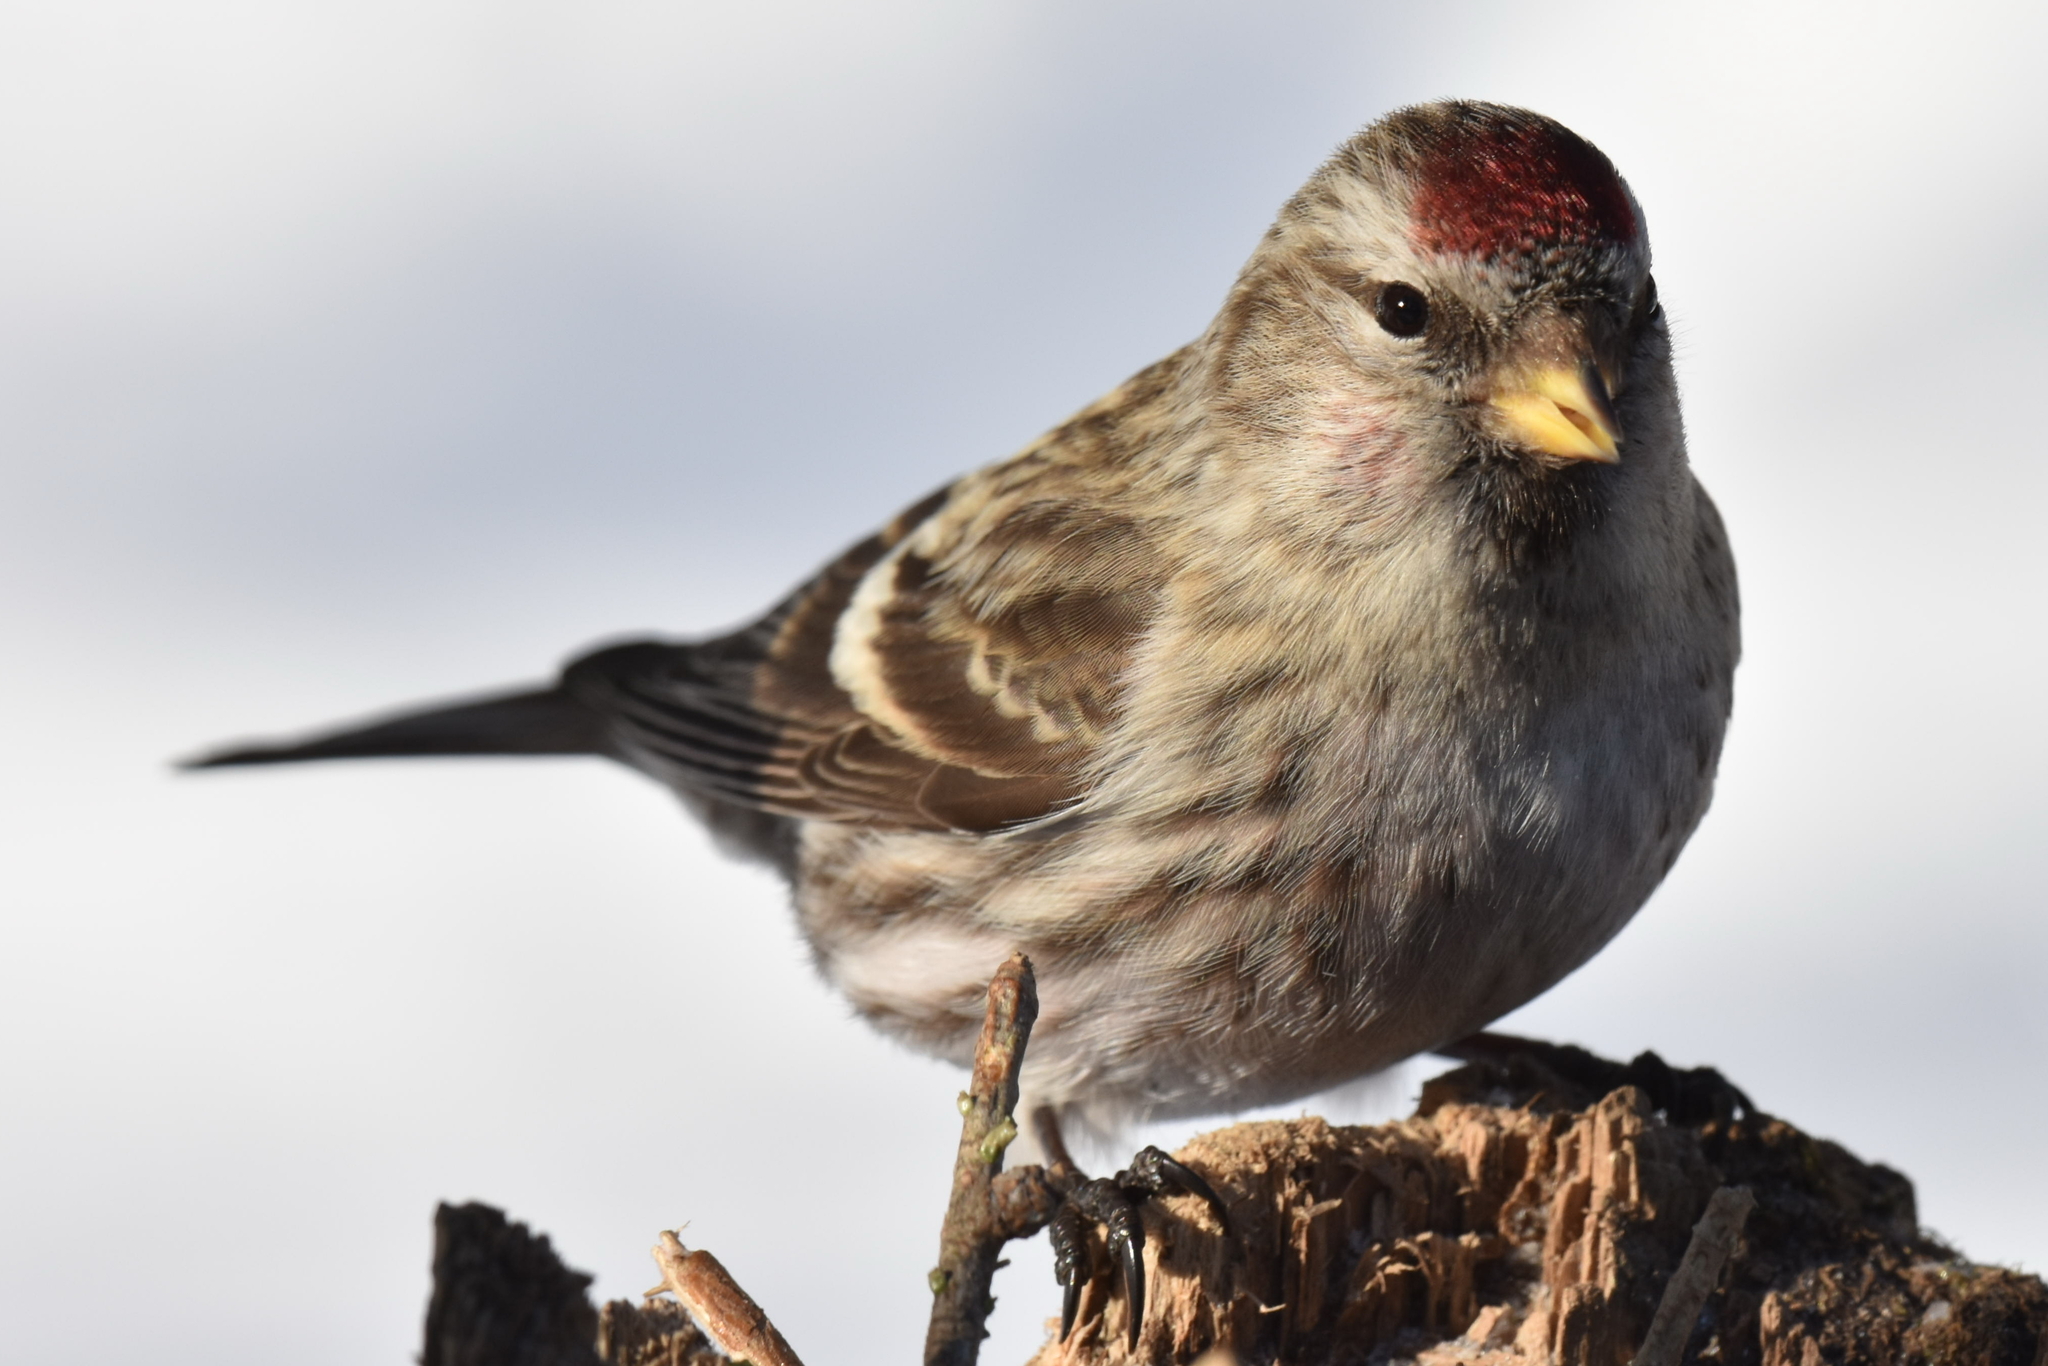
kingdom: Animalia
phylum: Chordata
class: Aves
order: Passeriformes
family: Fringillidae
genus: Acanthis
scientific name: Acanthis flammea
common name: Common redpoll
